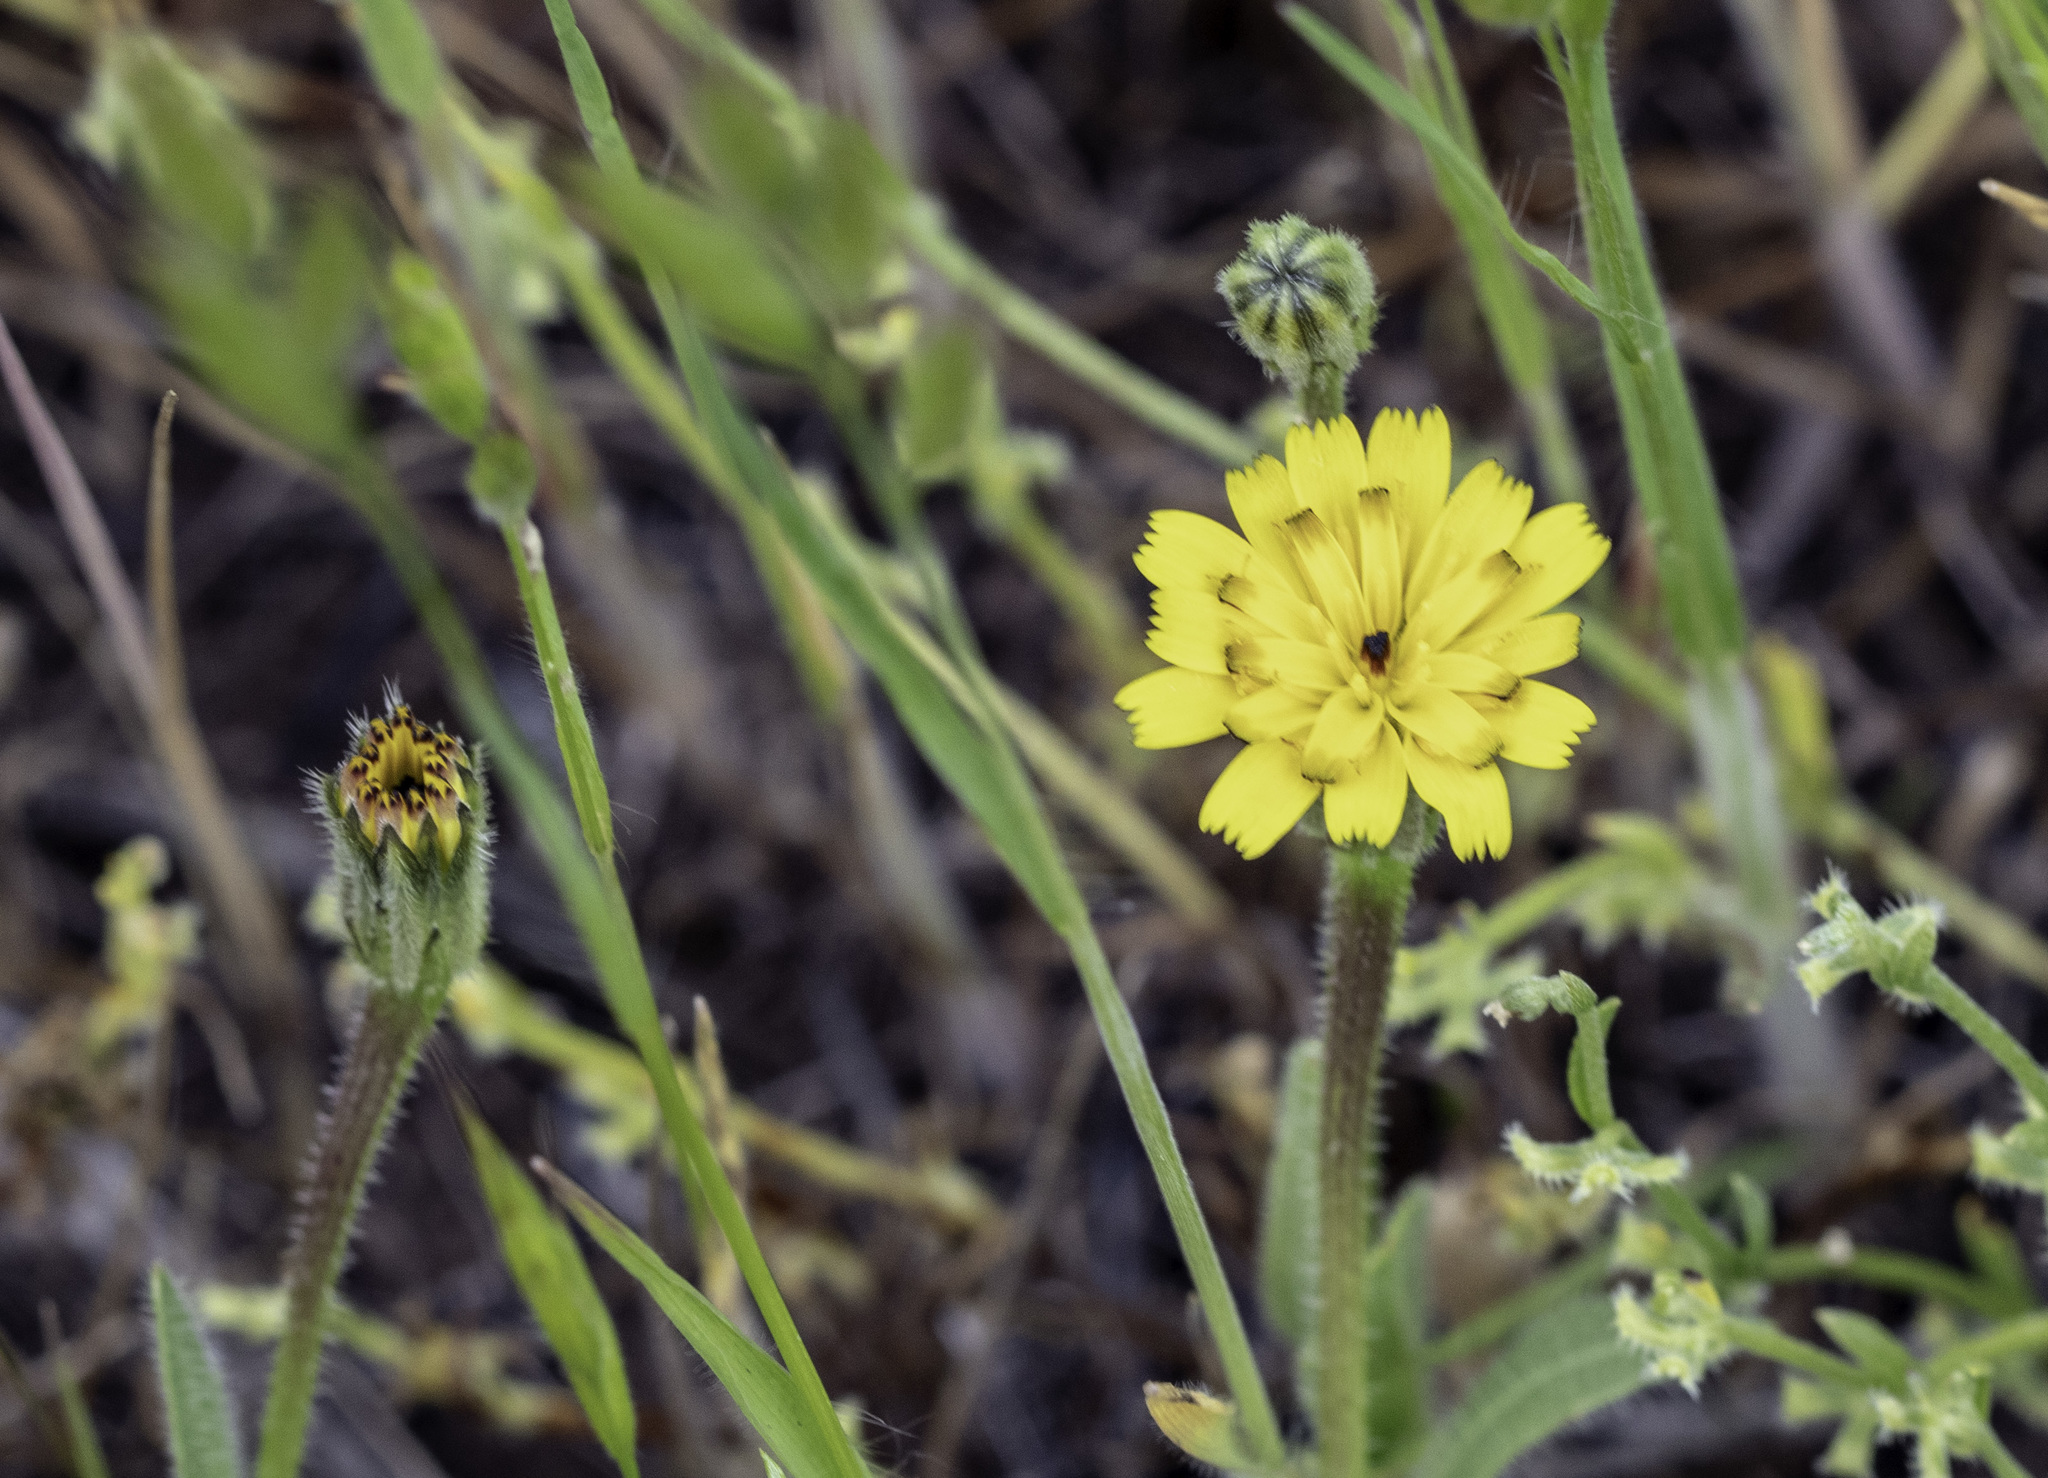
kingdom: Plantae
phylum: Tracheophyta
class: Magnoliopsida
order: Asterales
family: Asteraceae
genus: Hedypnois
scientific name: Hedypnois rhagadioloides
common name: Cretan weed
